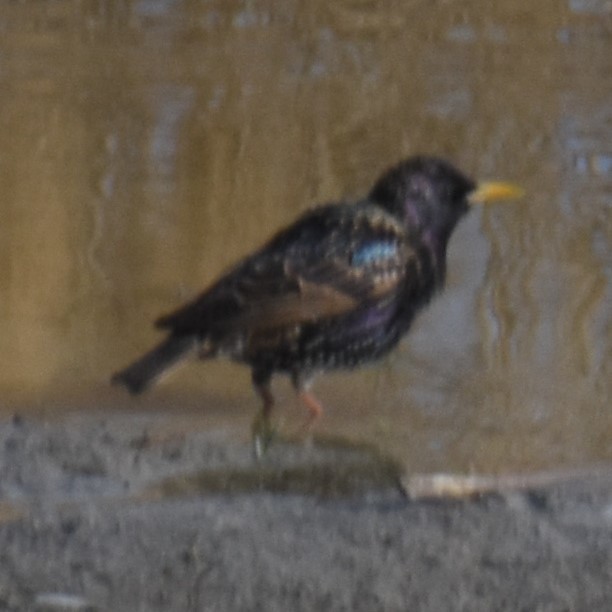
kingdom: Animalia
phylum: Chordata
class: Aves
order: Passeriformes
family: Sturnidae
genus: Sturnus
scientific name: Sturnus vulgaris
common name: Common starling
